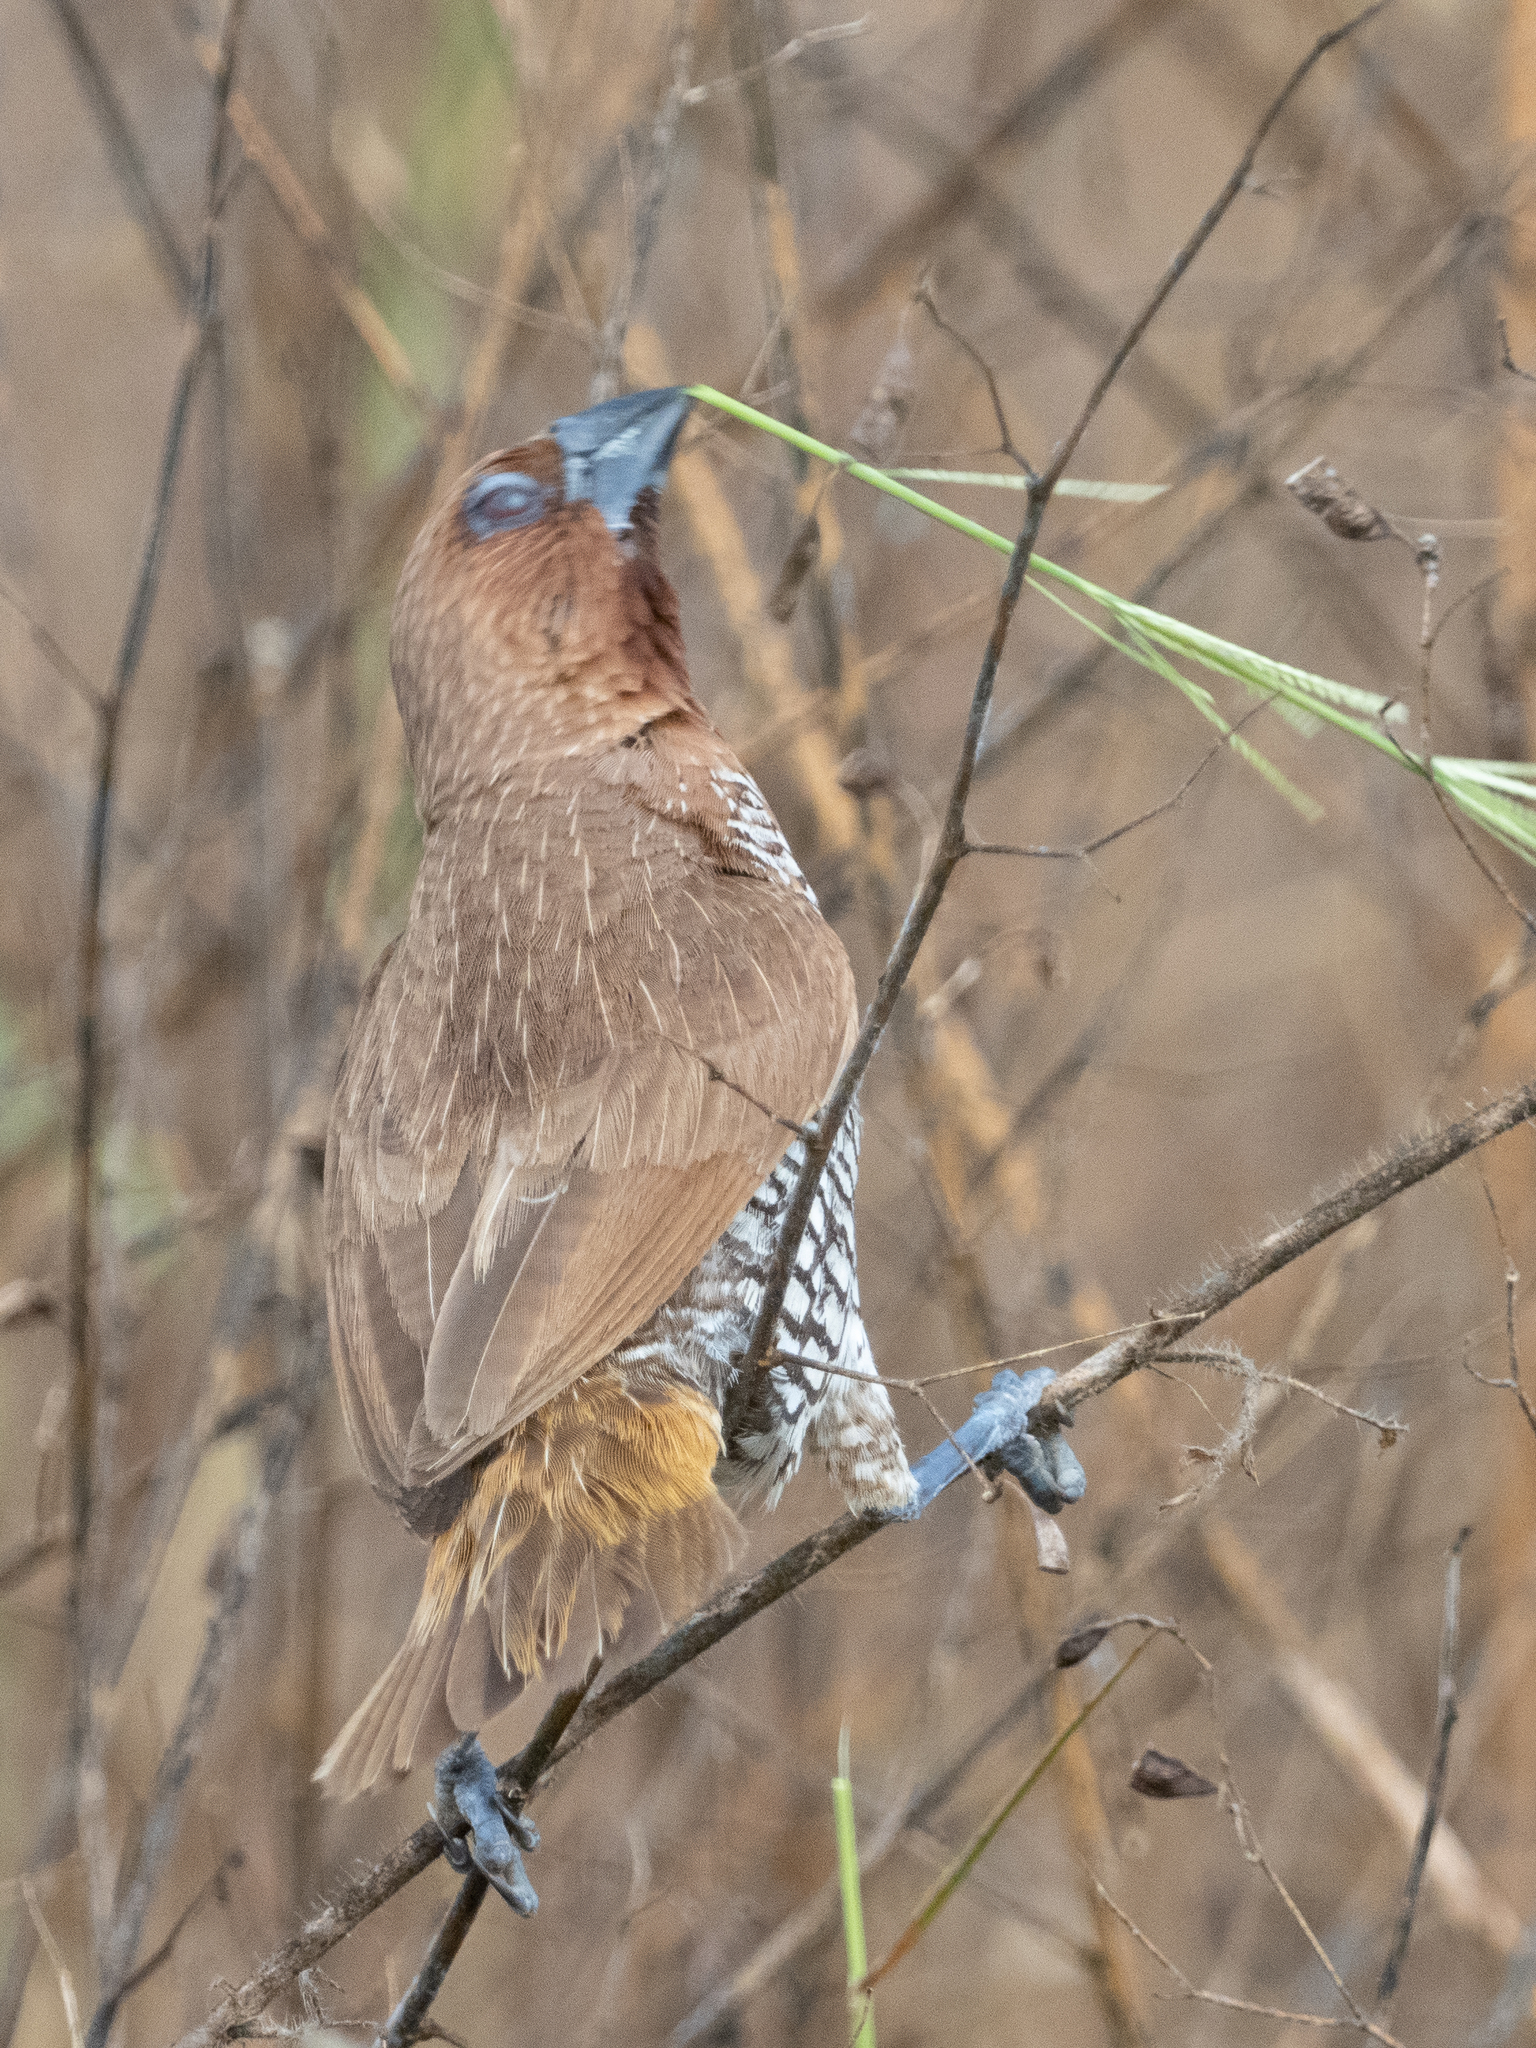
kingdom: Animalia
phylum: Chordata
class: Aves
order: Passeriformes
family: Estrildidae
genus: Lonchura
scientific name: Lonchura punctulata
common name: Scaly-breasted munia
